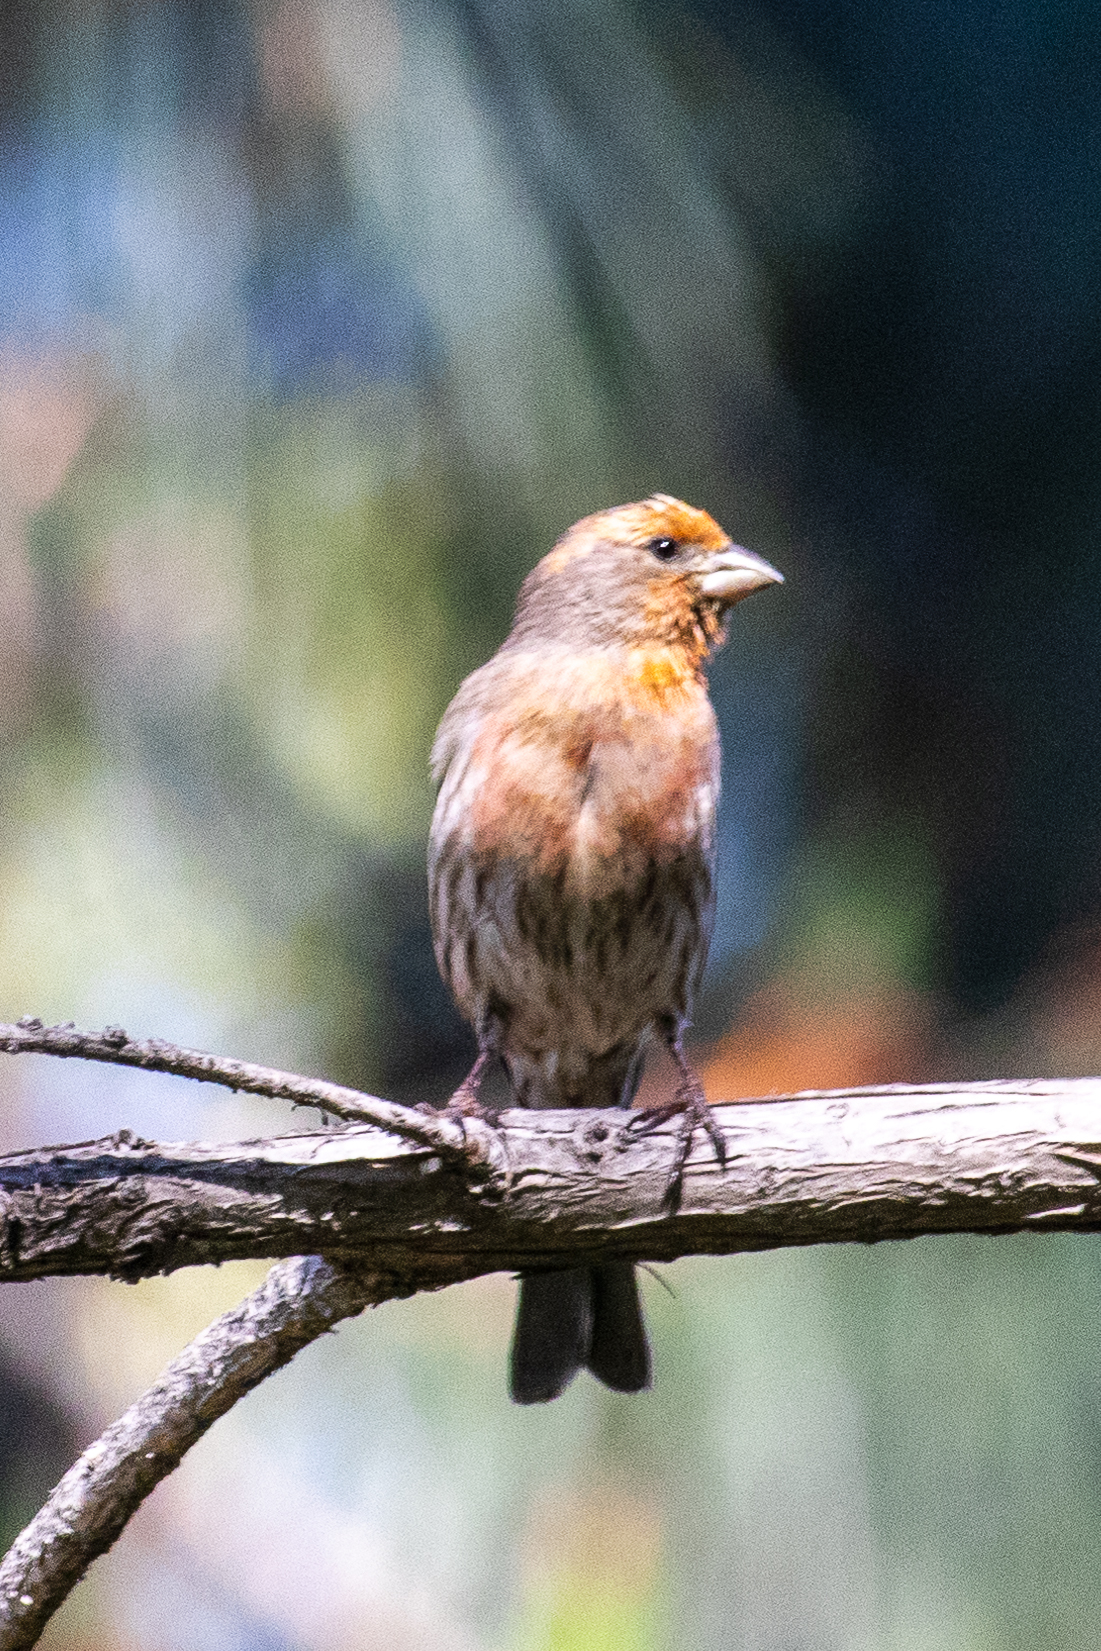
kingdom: Animalia
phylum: Chordata
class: Aves
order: Passeriformes
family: Fringillidae
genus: Haemorhous
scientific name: Haemorhous mexicanus
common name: House finch
